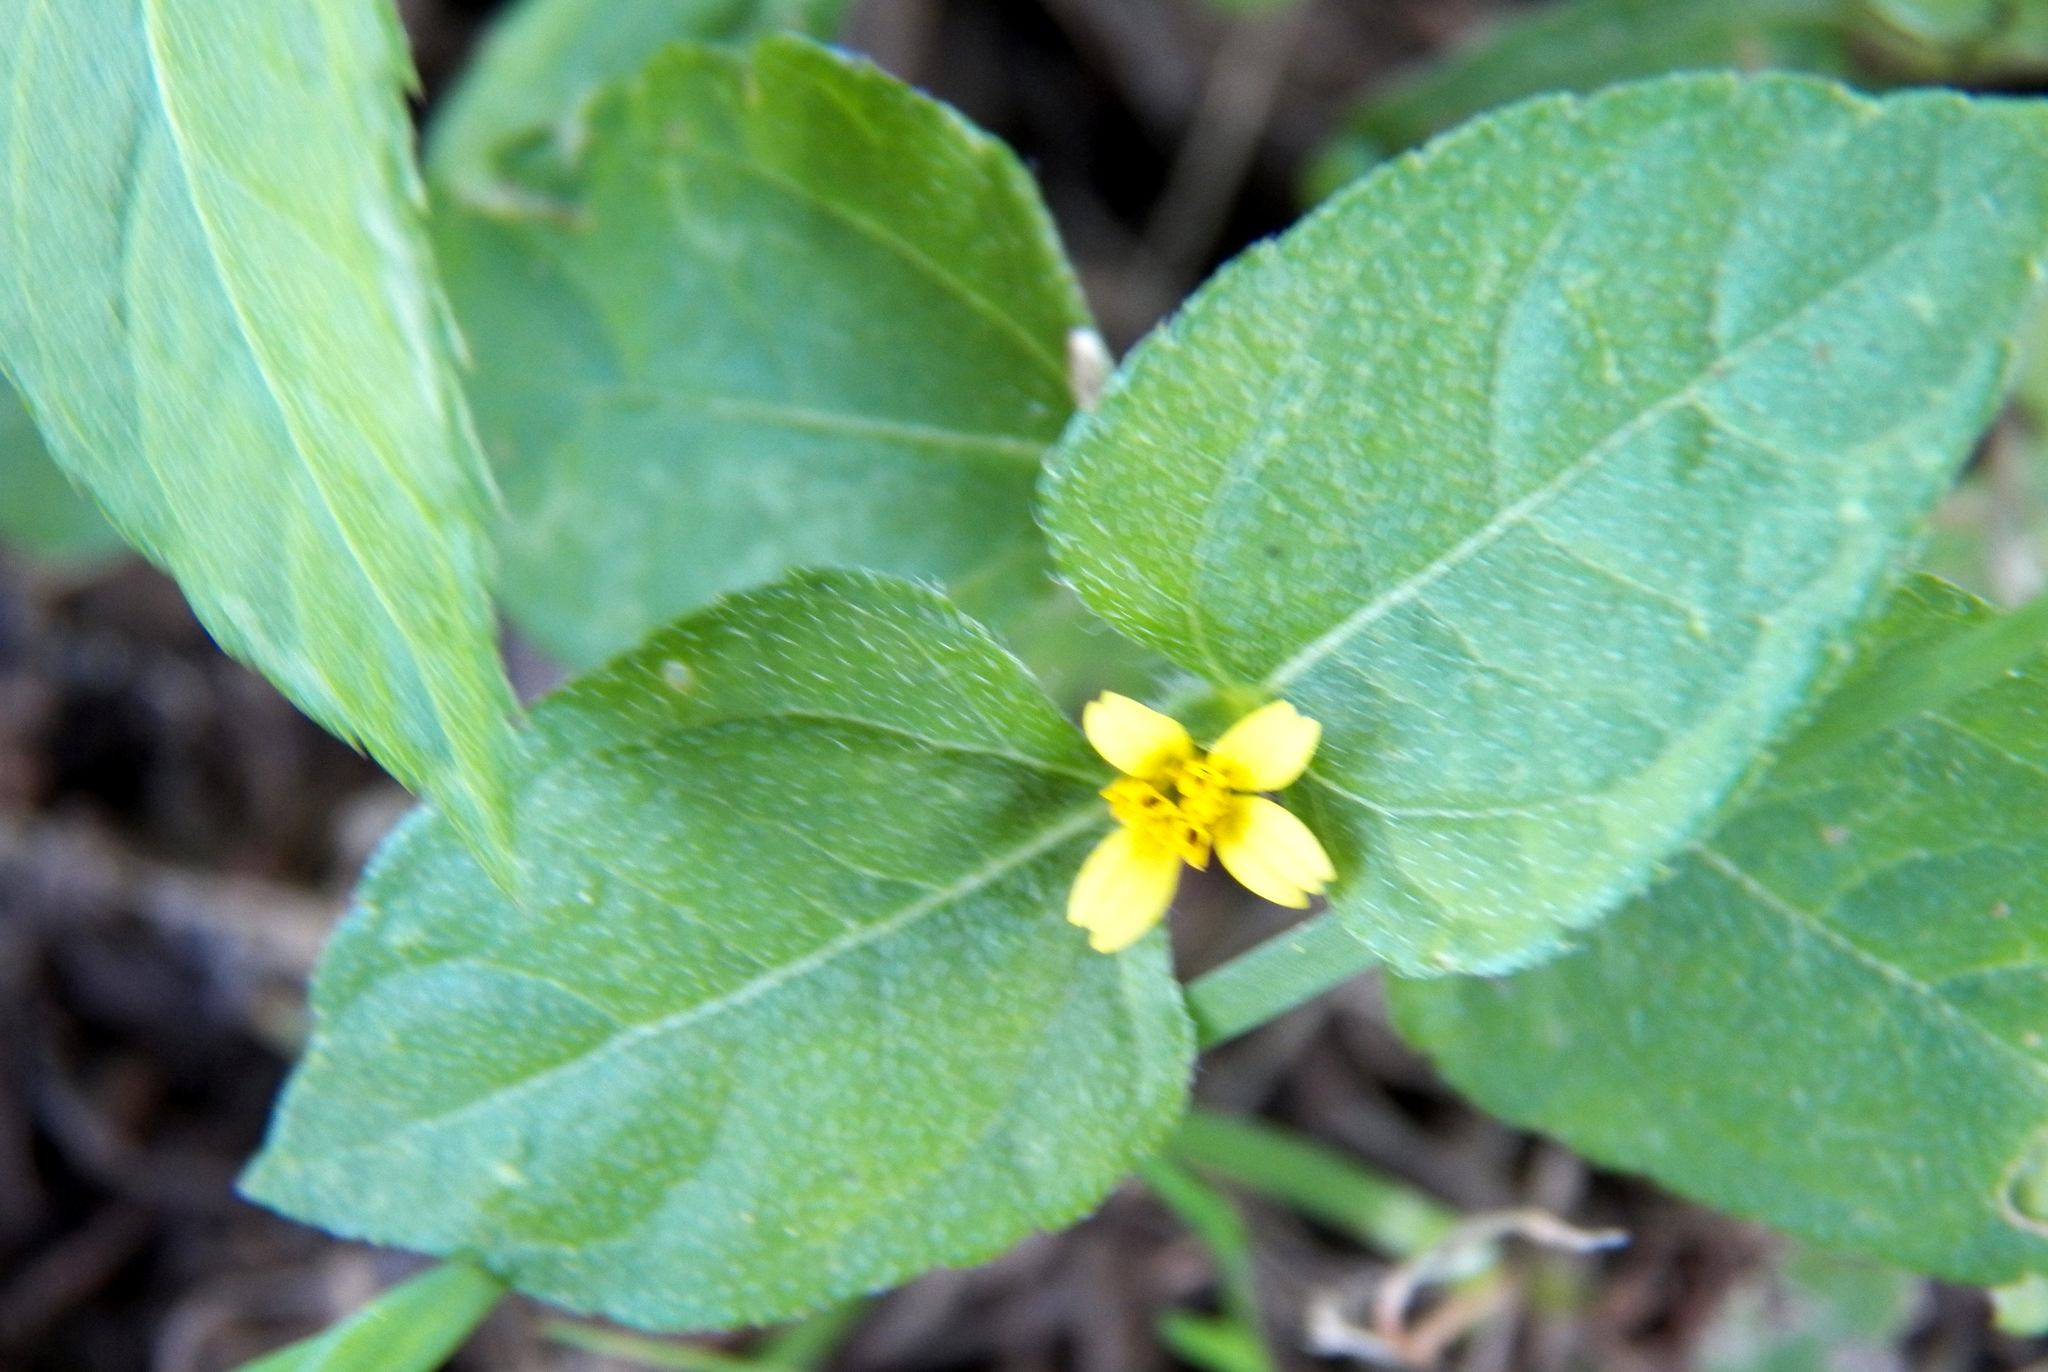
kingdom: Plantae
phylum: Tracheophyta
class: Magnoliopsida
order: Asterales
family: Asteraceae
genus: Calyptocarpus
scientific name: Calyptocarpus vialis
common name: Straggler daisy
